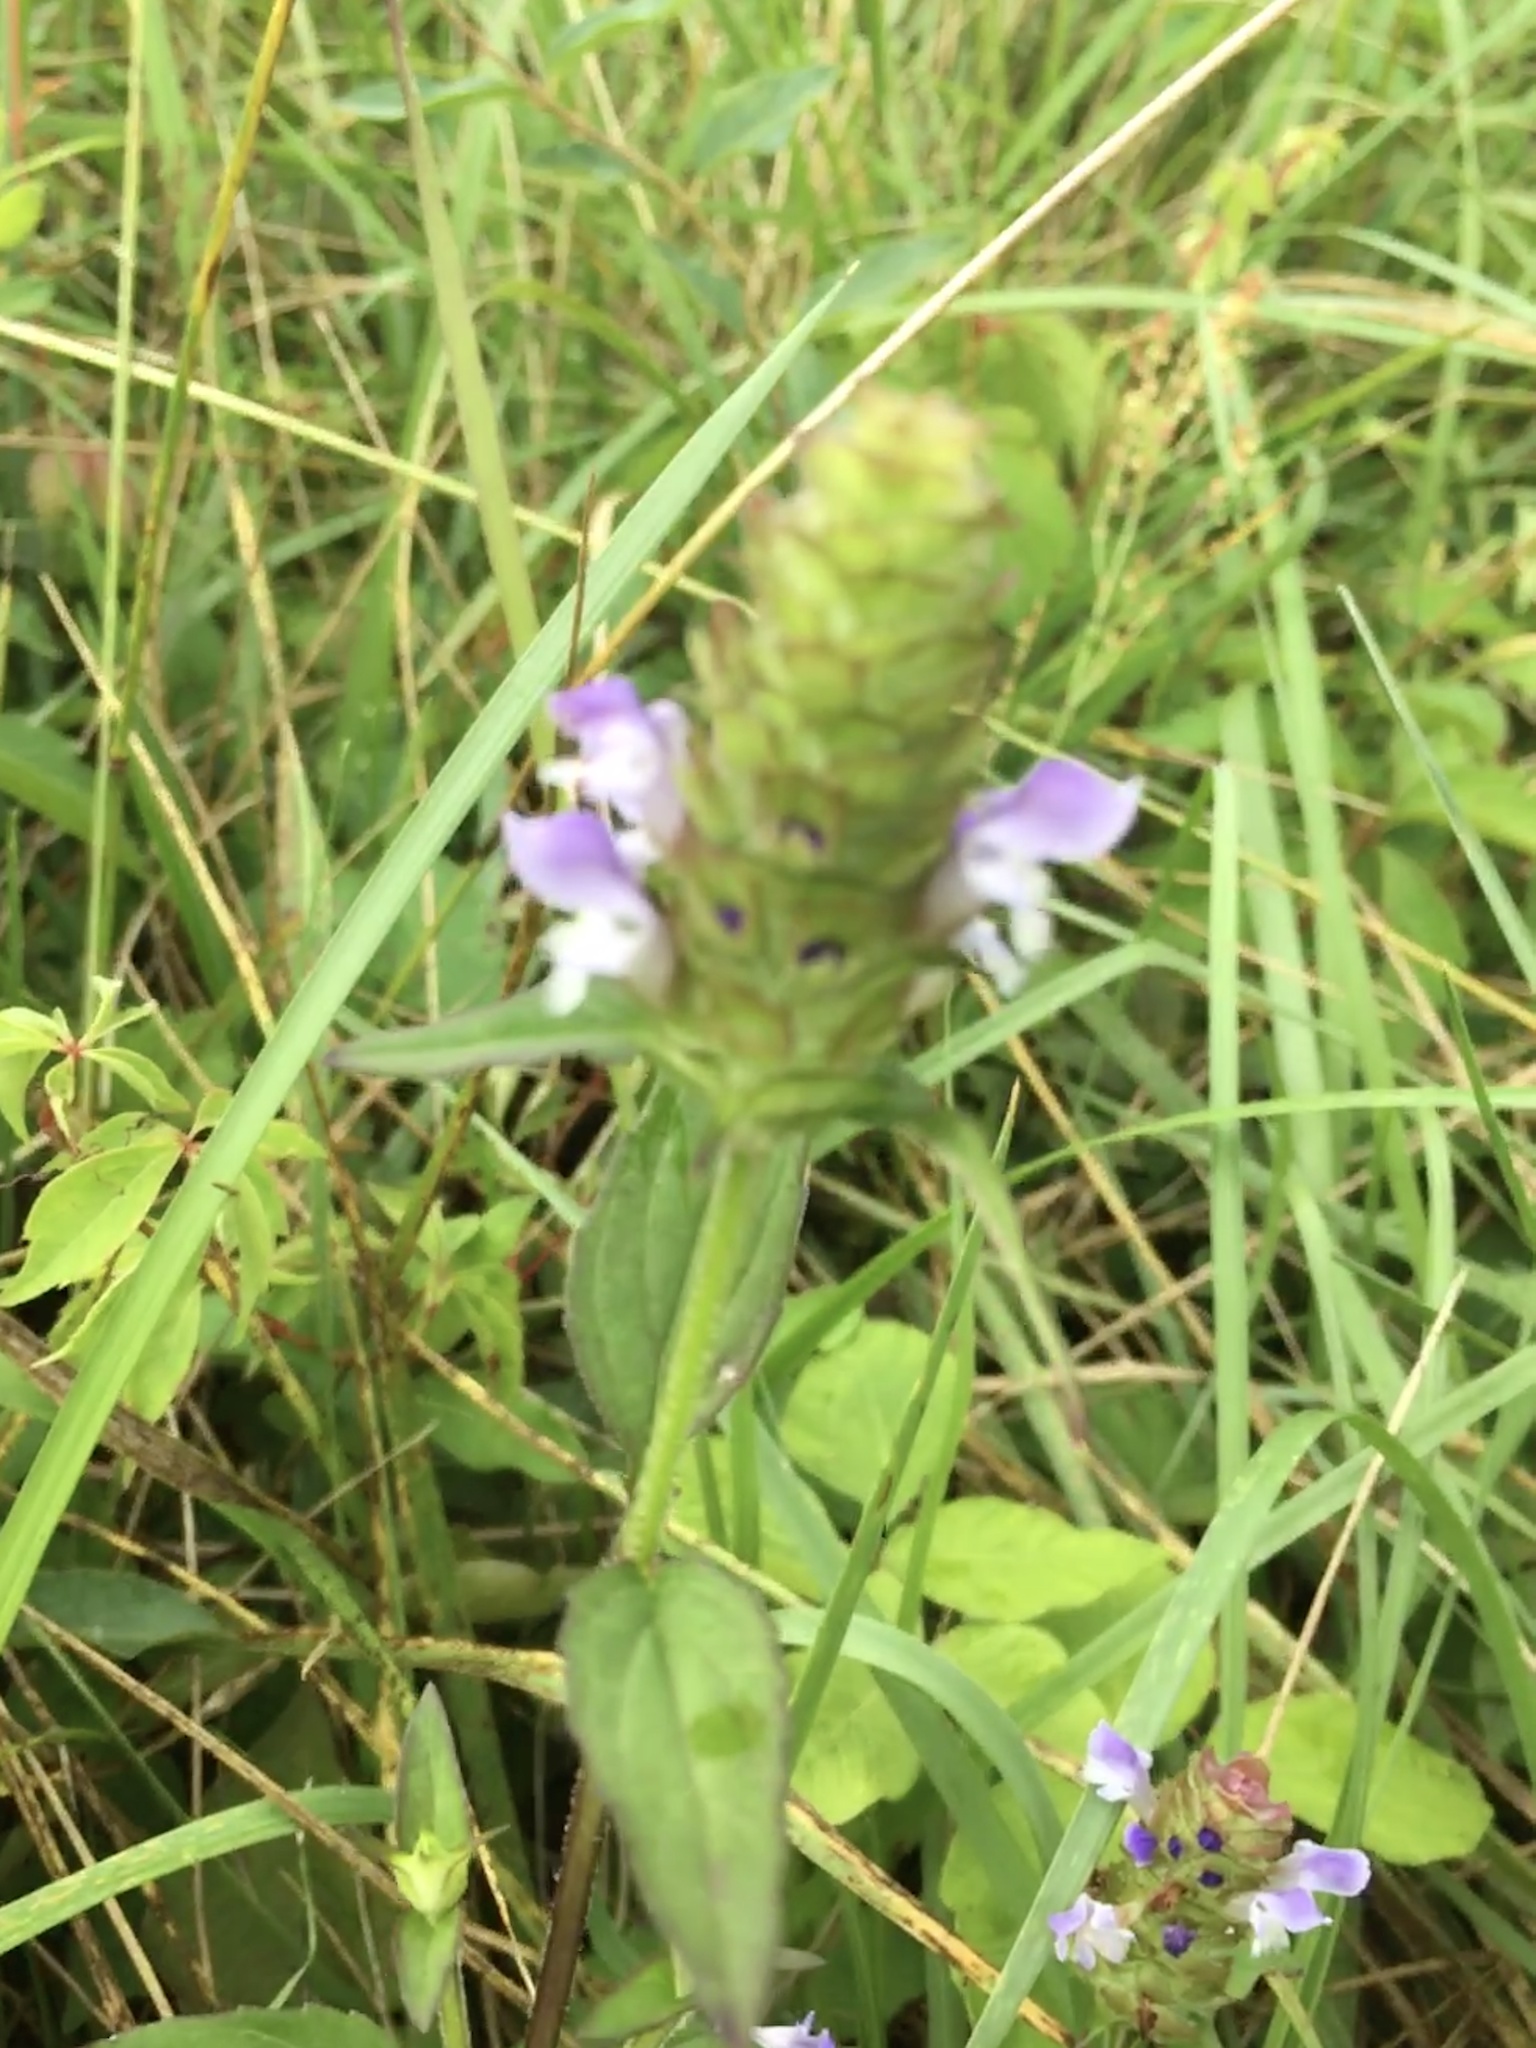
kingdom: Plantae
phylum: Tracheophyta
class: Magnoliopsida
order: Lamiales
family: Lamiaceae
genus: Prunella
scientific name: Prunella vulgaris
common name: Heal-all
